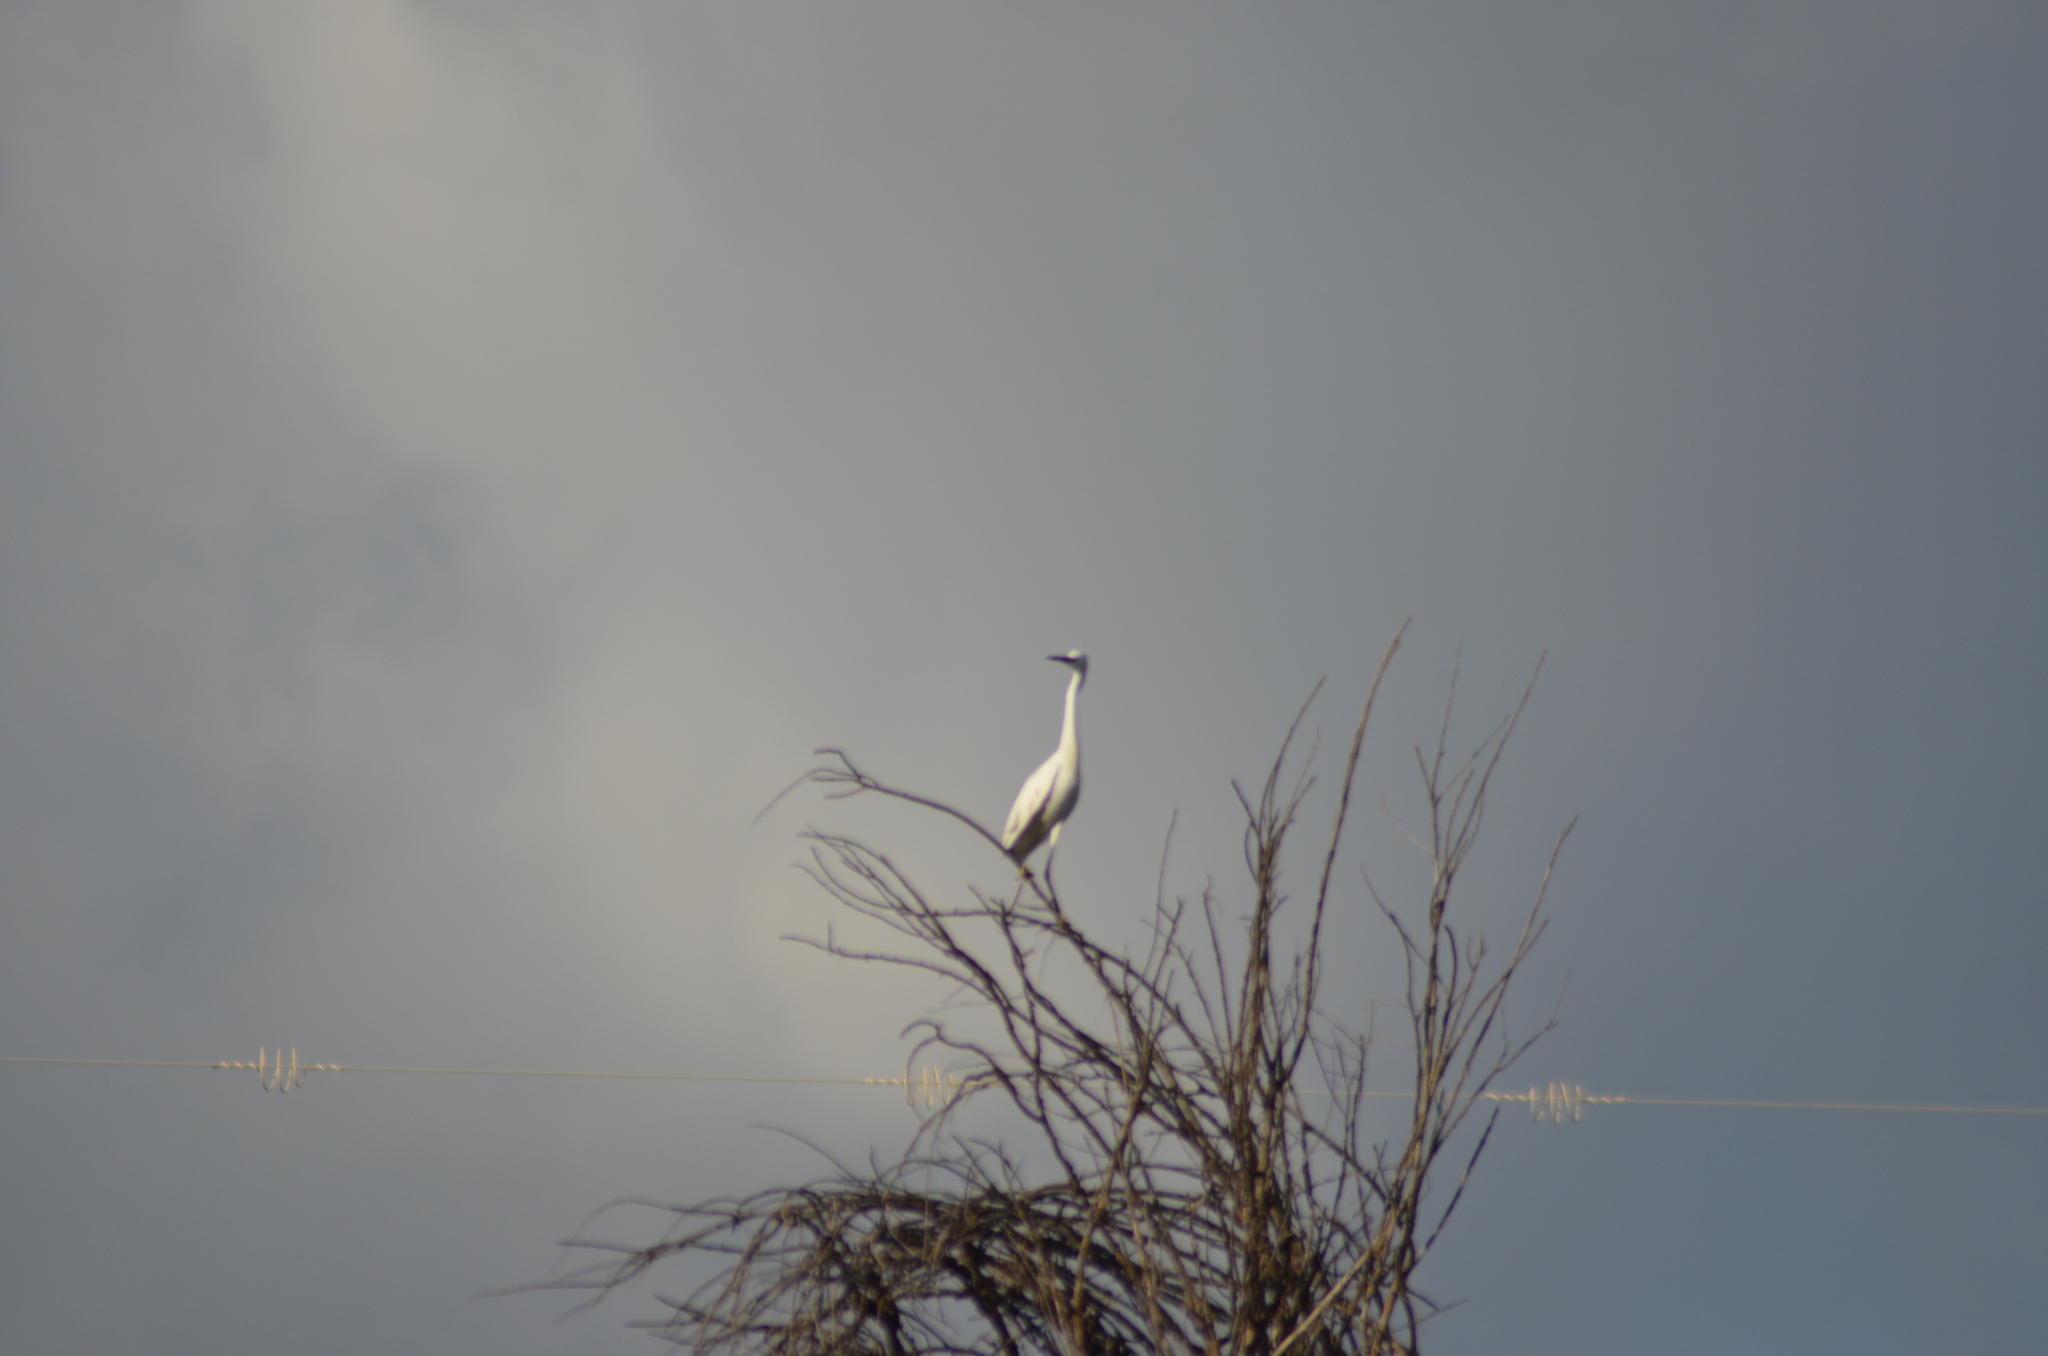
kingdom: Animalia
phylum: Chordata
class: Aves
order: Pelecaniformes
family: Ardeidae
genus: Egretta
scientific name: Egretta garzetta
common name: Little egret
